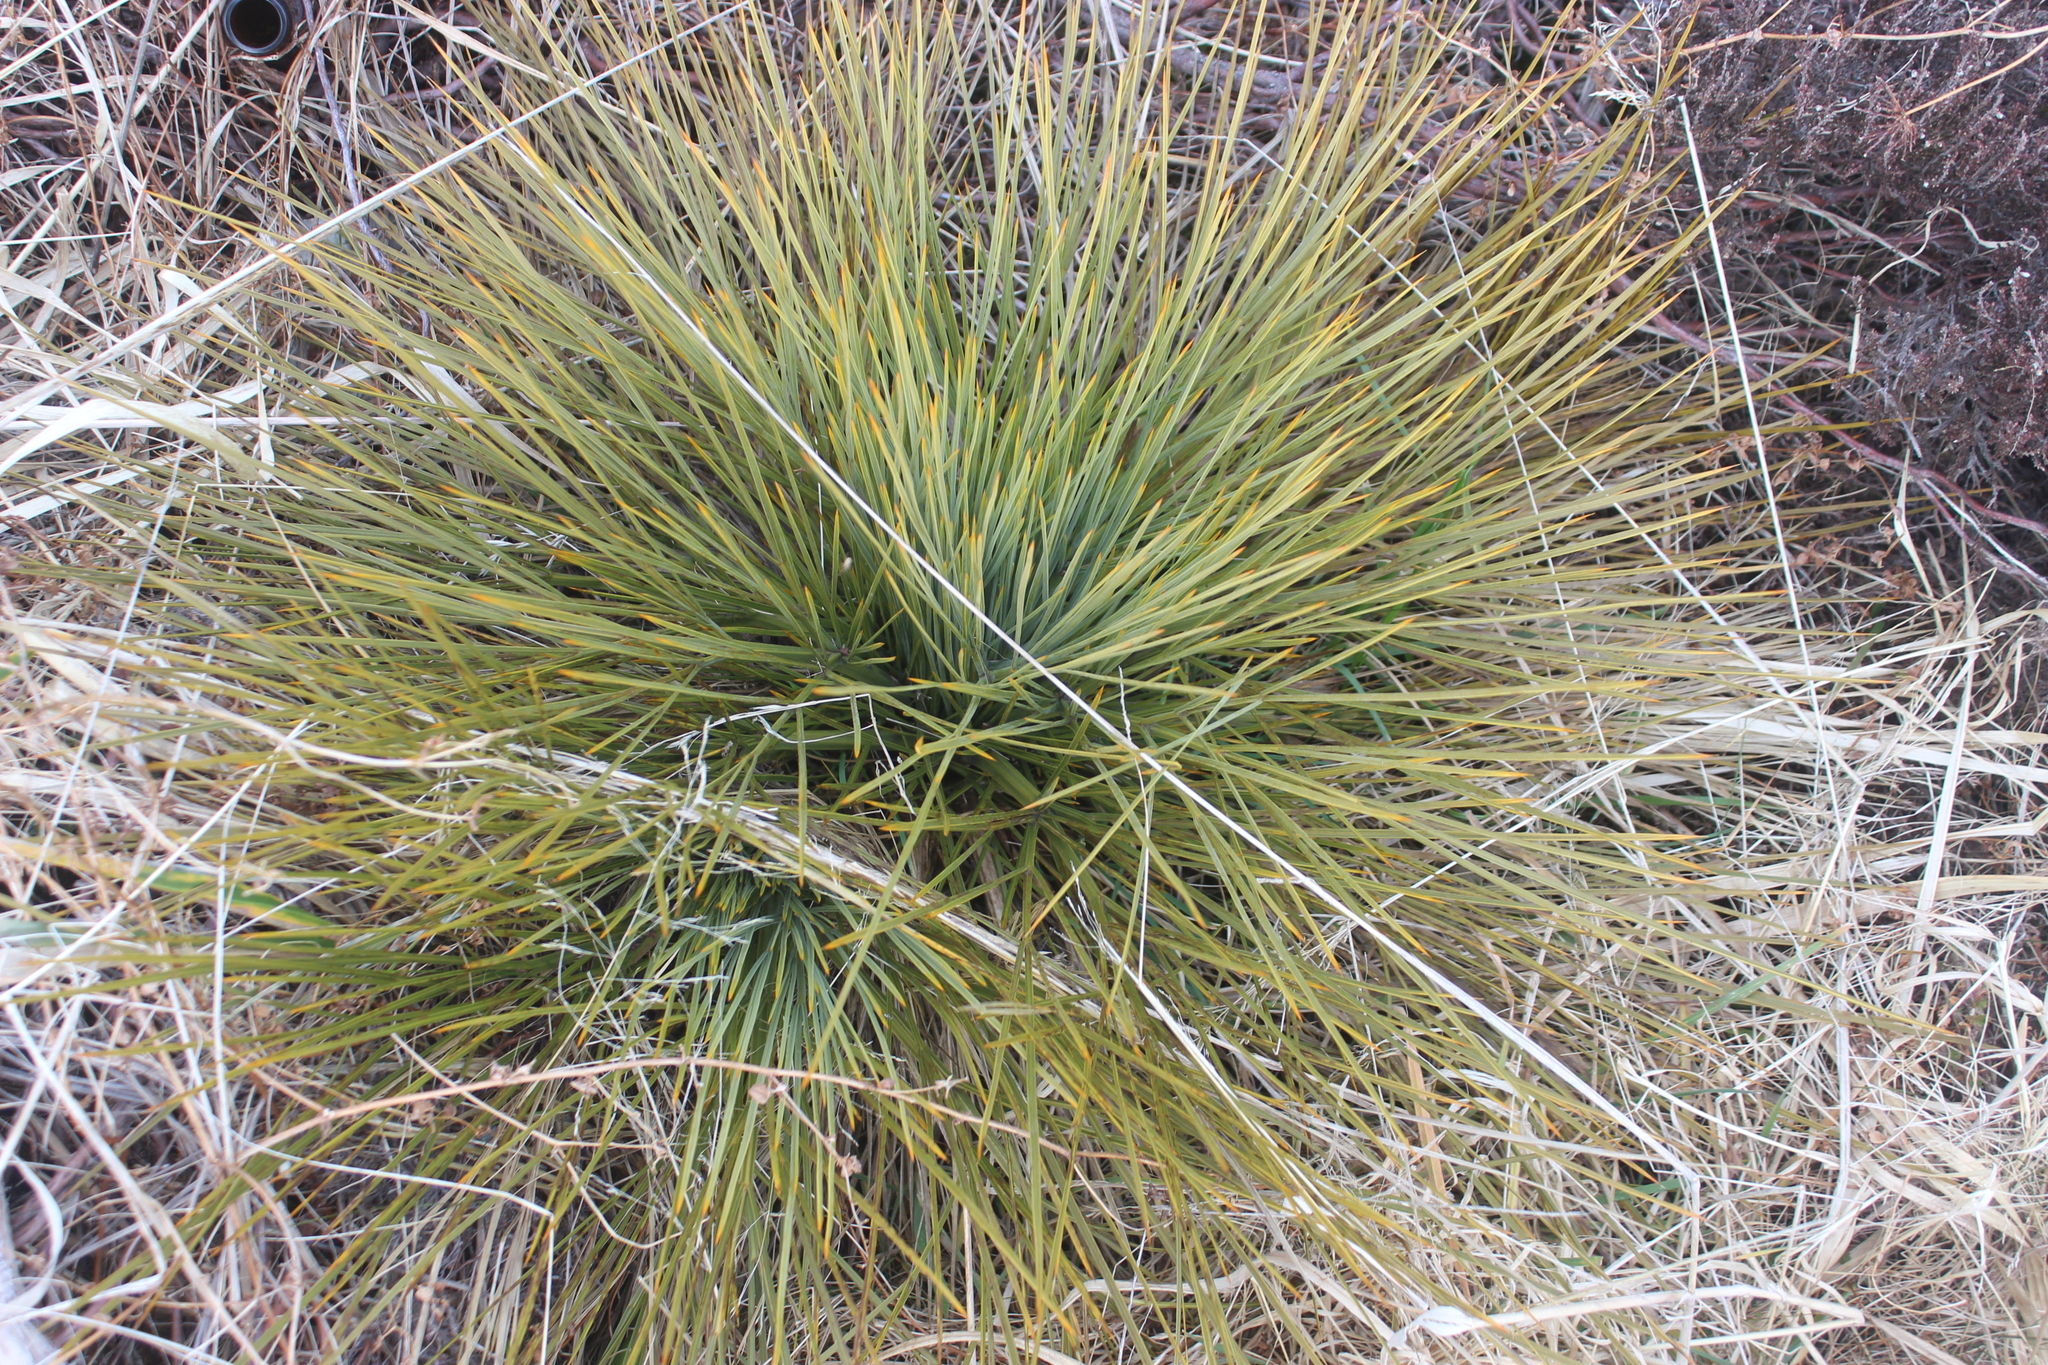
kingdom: Plantae
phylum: Tracheophyta
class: Magnoliopsida
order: Apiales
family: Apiaceae
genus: Aciphylla
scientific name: Aciphylla squarrosa
